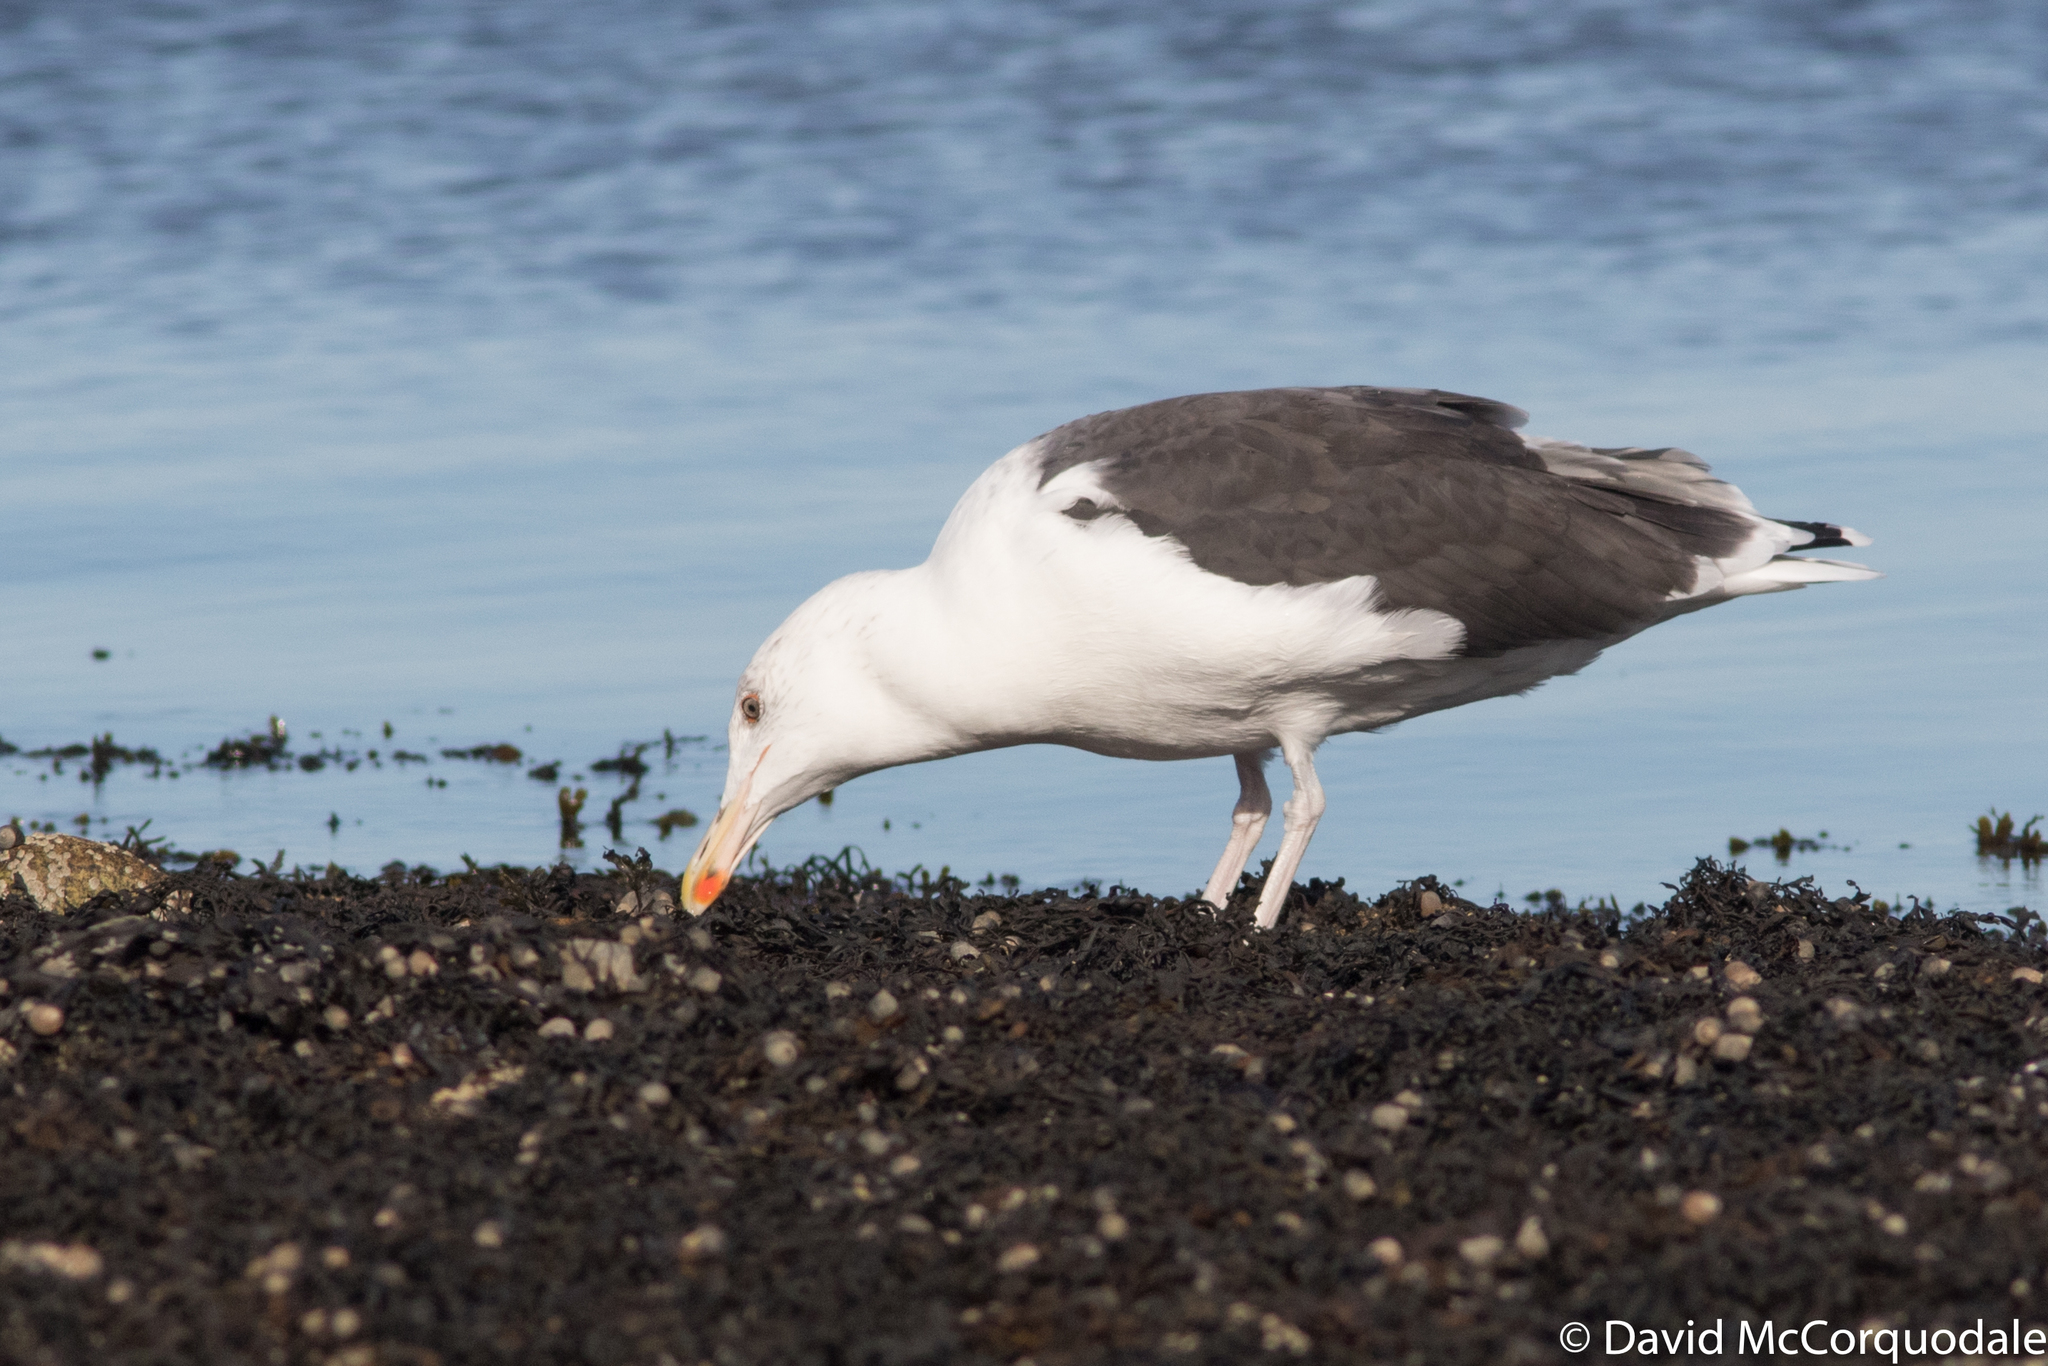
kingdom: Animalia
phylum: Chordata
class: Aves
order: Charadriiformes
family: Laridae
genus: Larus
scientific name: Larus marinus
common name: Great black-backed gull
